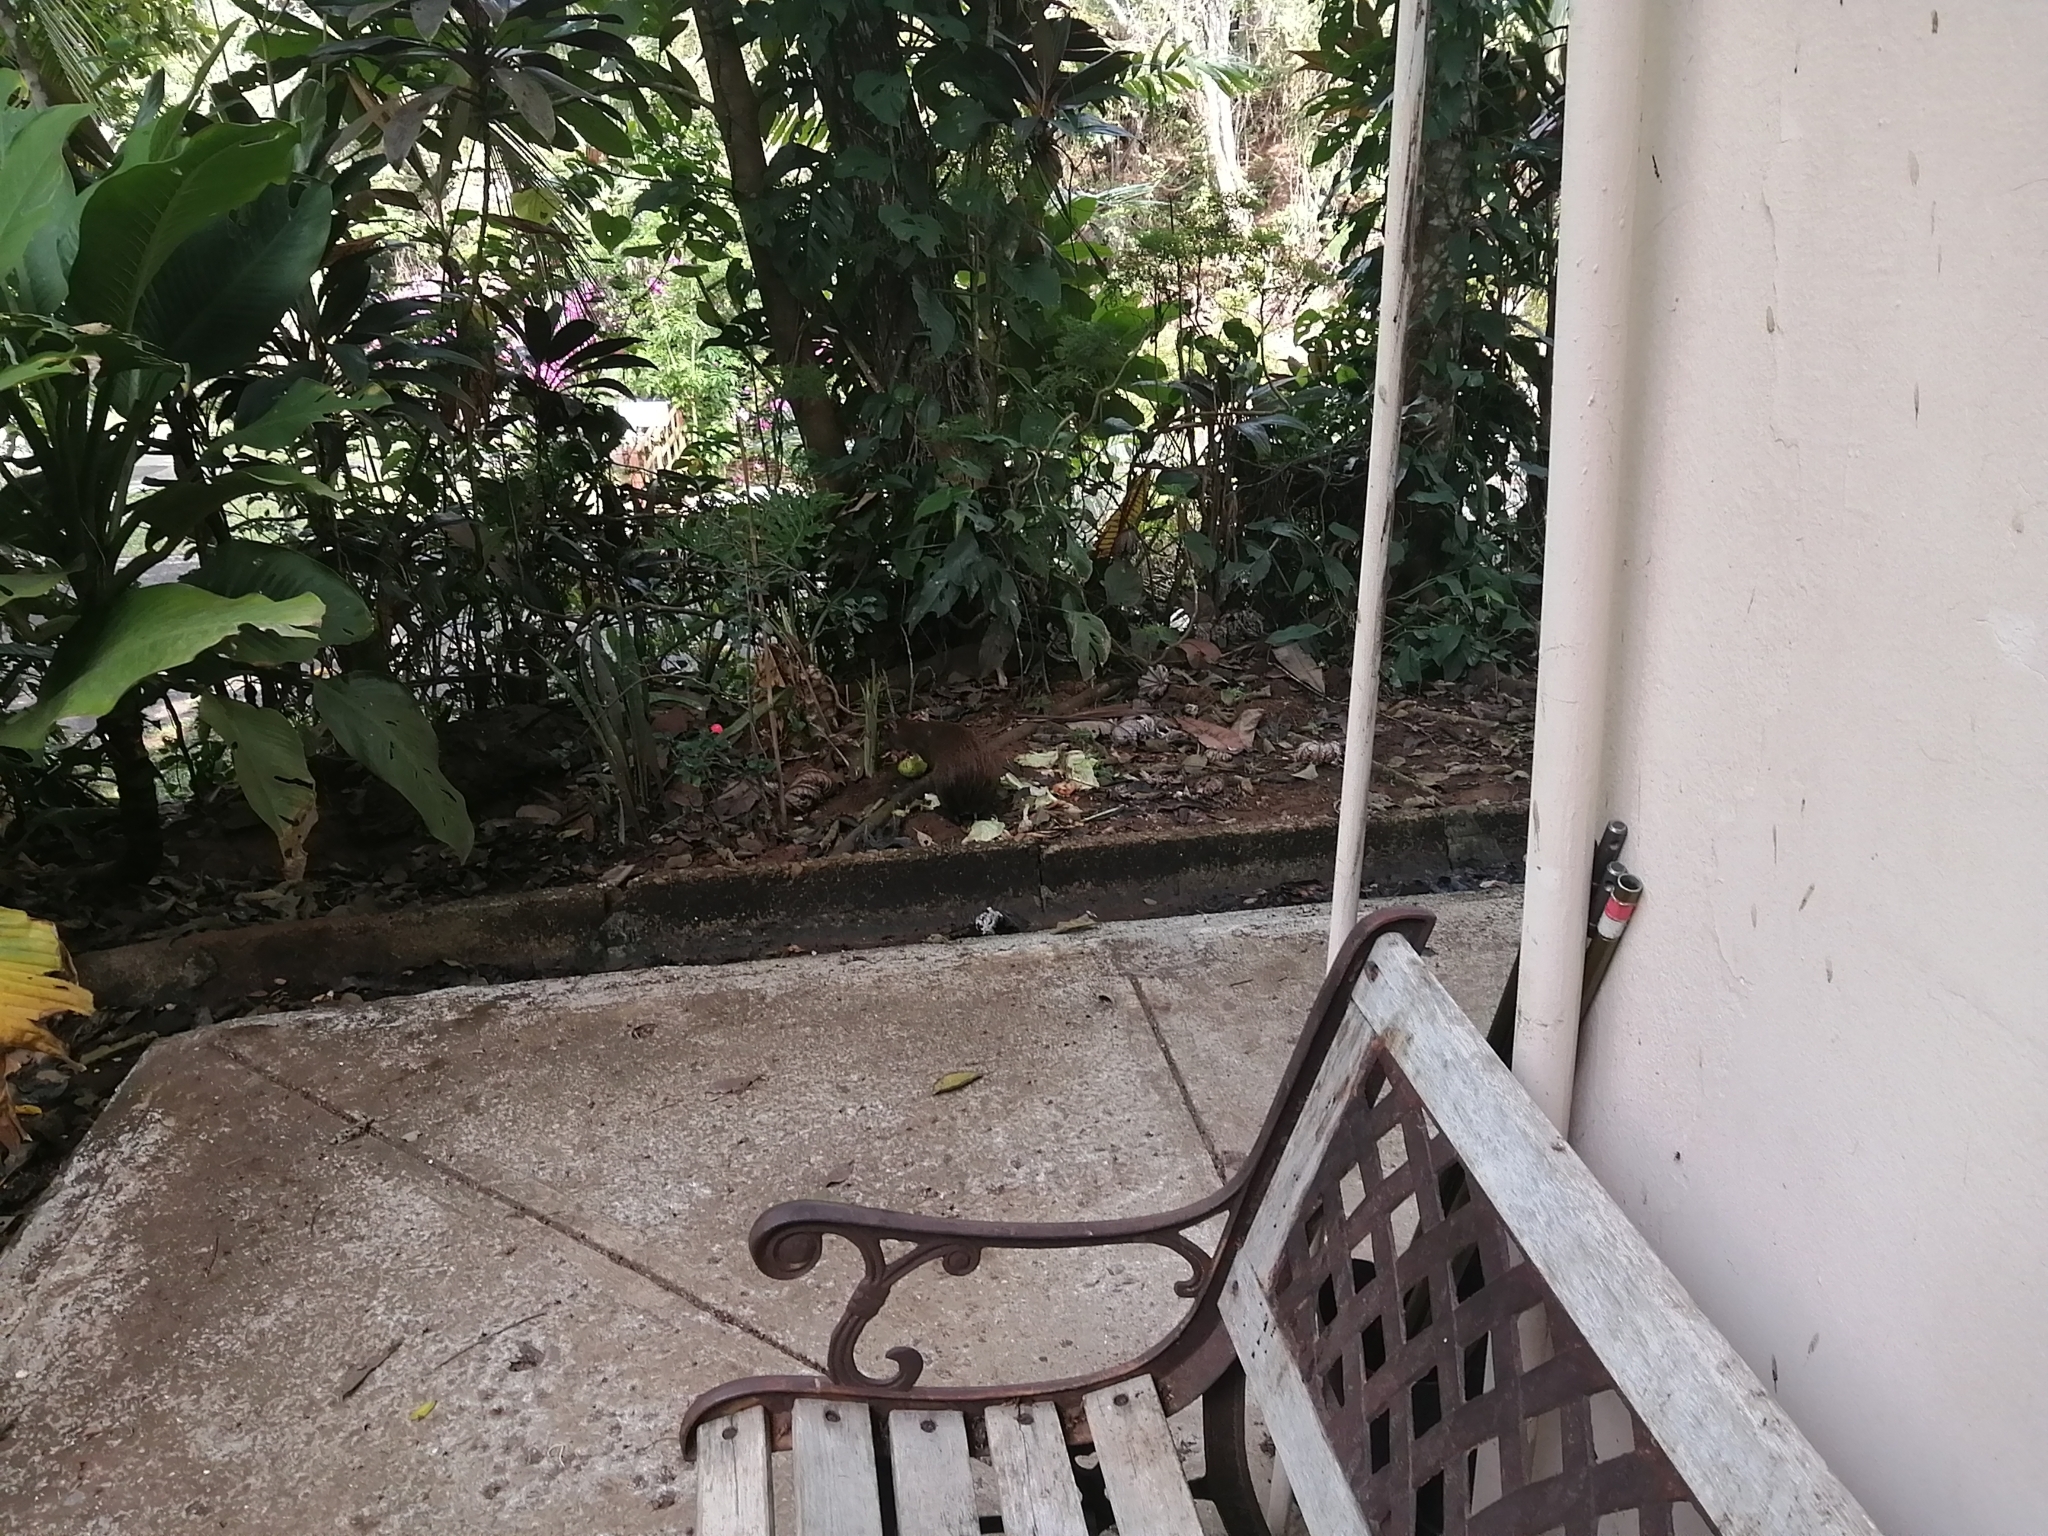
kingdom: Animalia
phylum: Chordata
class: Mammalia
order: Rodentia
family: Dasyproctidae
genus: Dasyprocta
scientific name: Dasyprocta punctata
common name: Central american agouti
